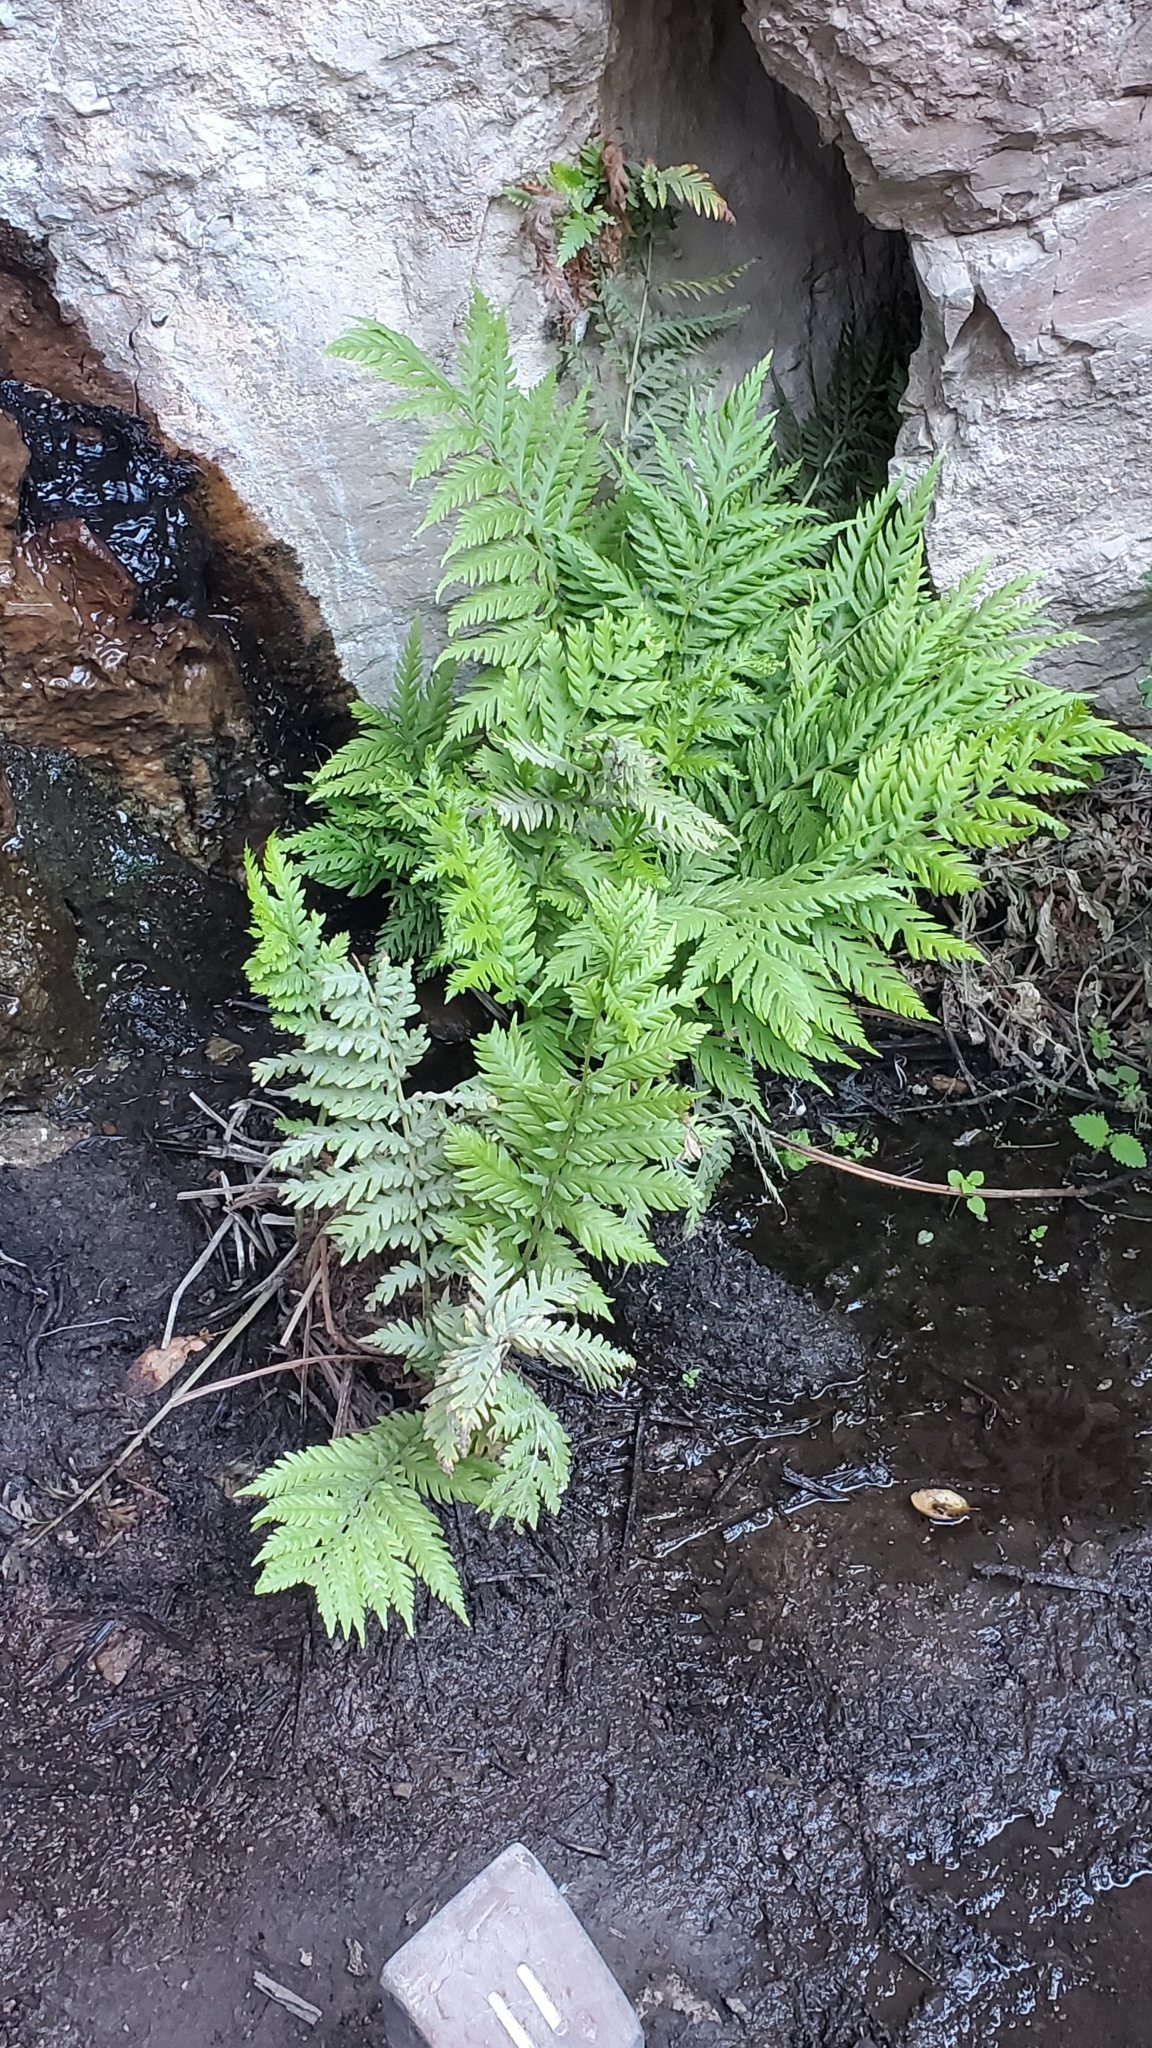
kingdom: Plantae
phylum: Tracheophyta
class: Polypodiopsida
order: Polypodiales
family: Blechnaceae
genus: Woodwardia
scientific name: Woodwardia fimbriata
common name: Giant chain fern
